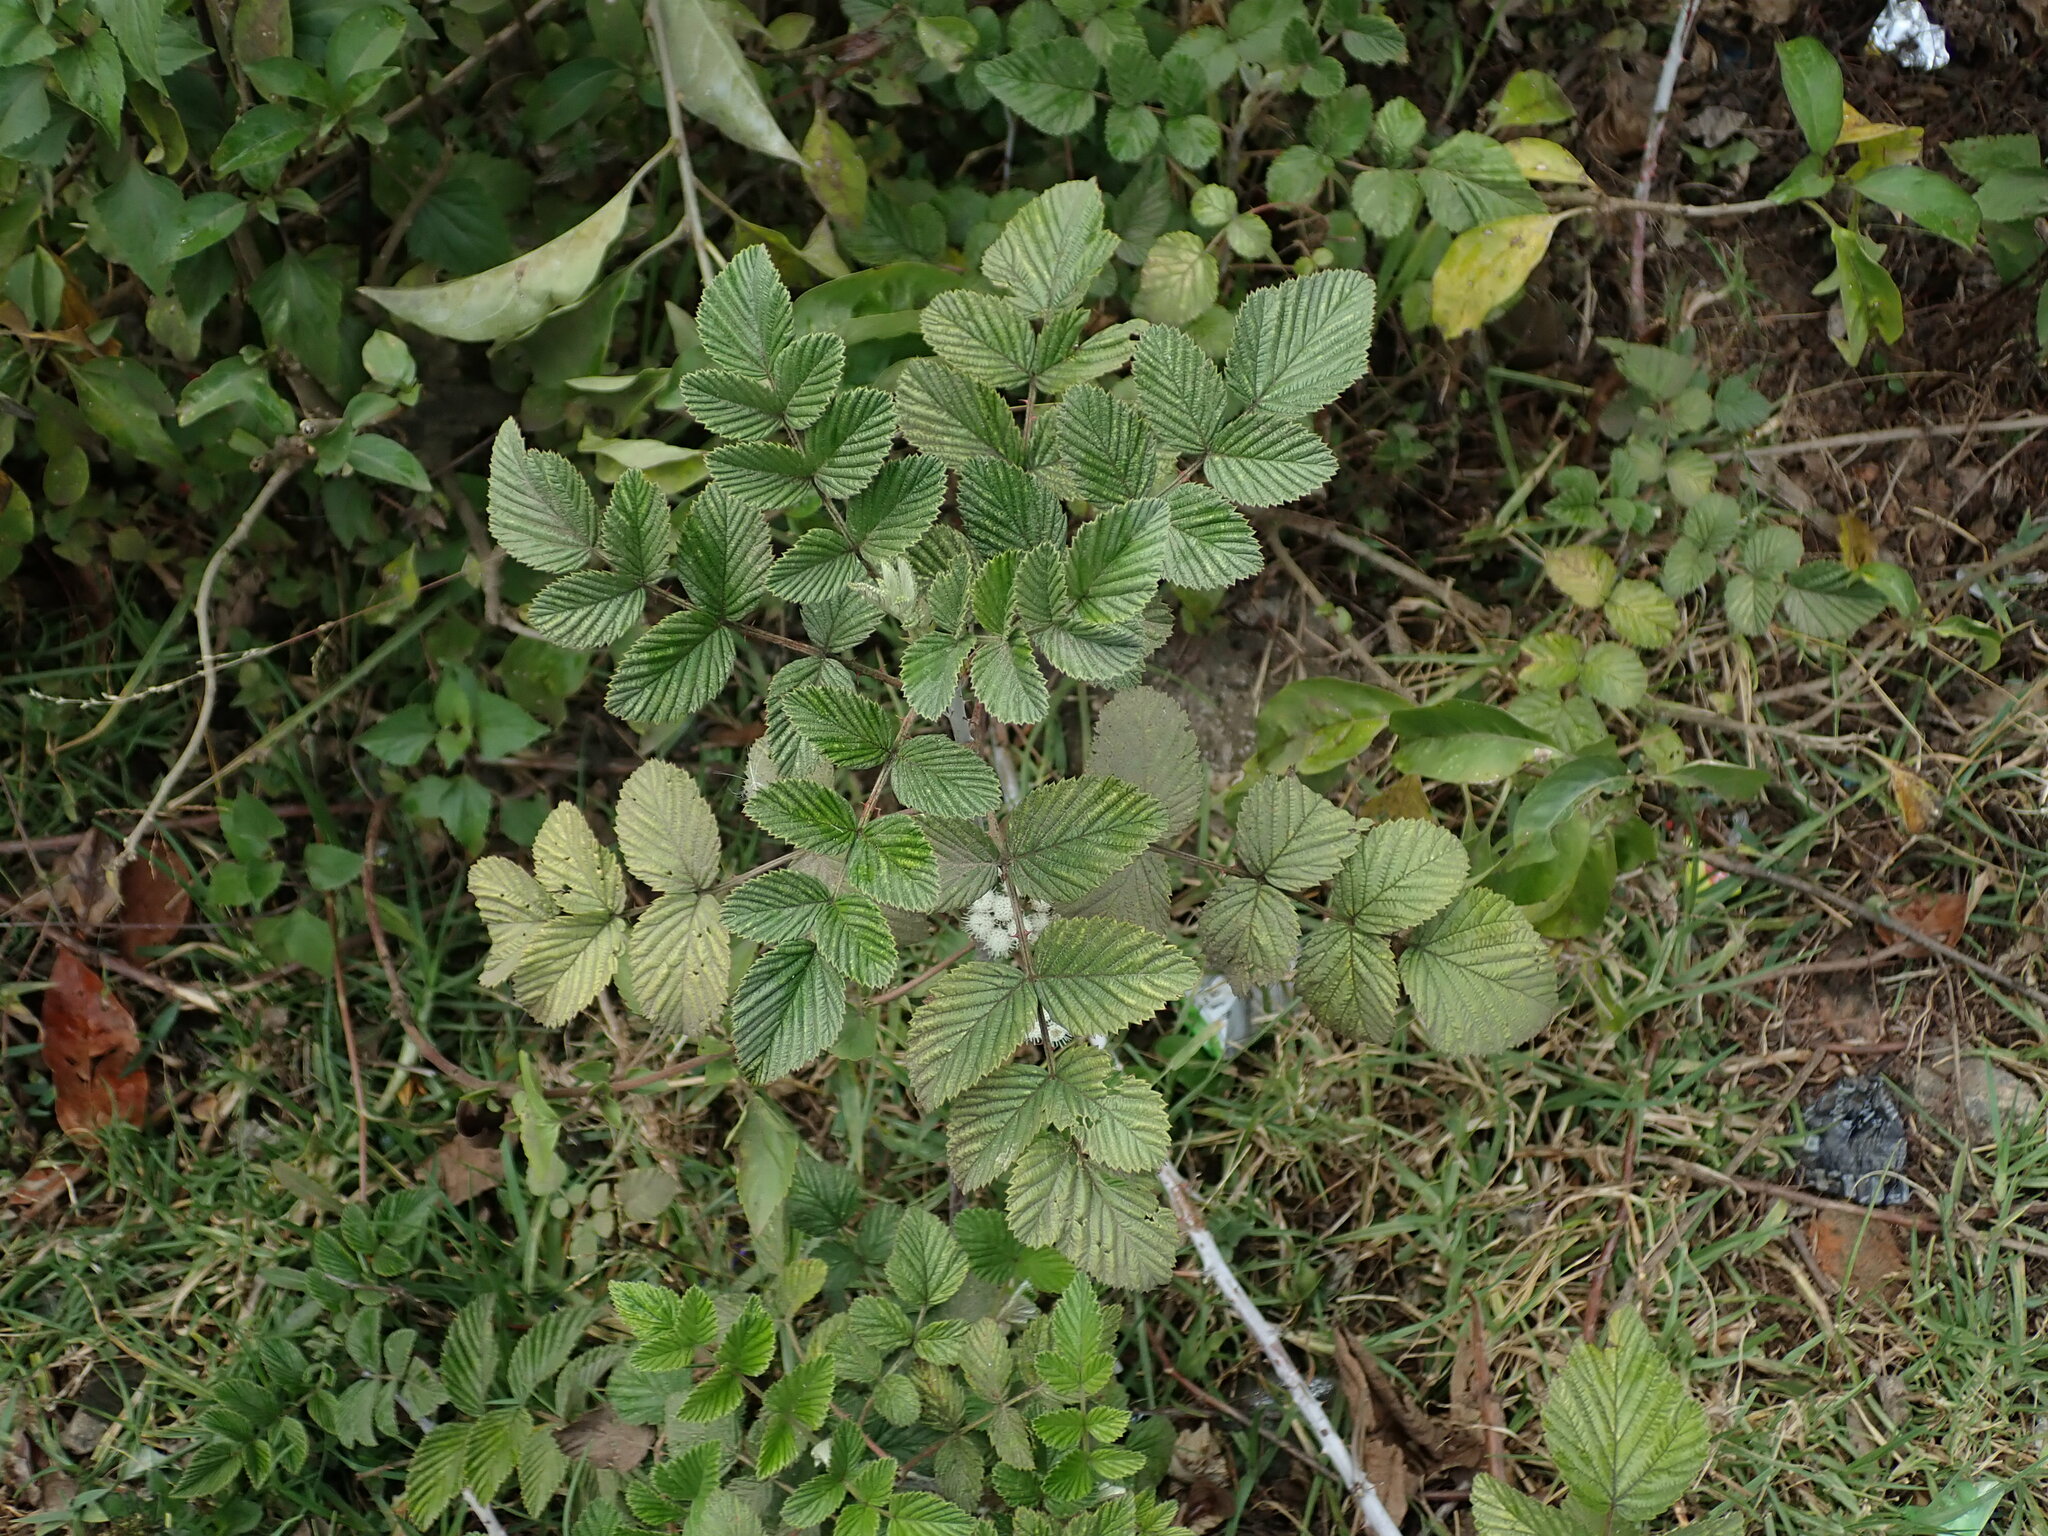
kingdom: Plantae
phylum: Tracheophyta
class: Magnoliopsida
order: Rosales
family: Rosaceae
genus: Rubus
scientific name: Rubus niveus
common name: Snowpeaks raspberry
